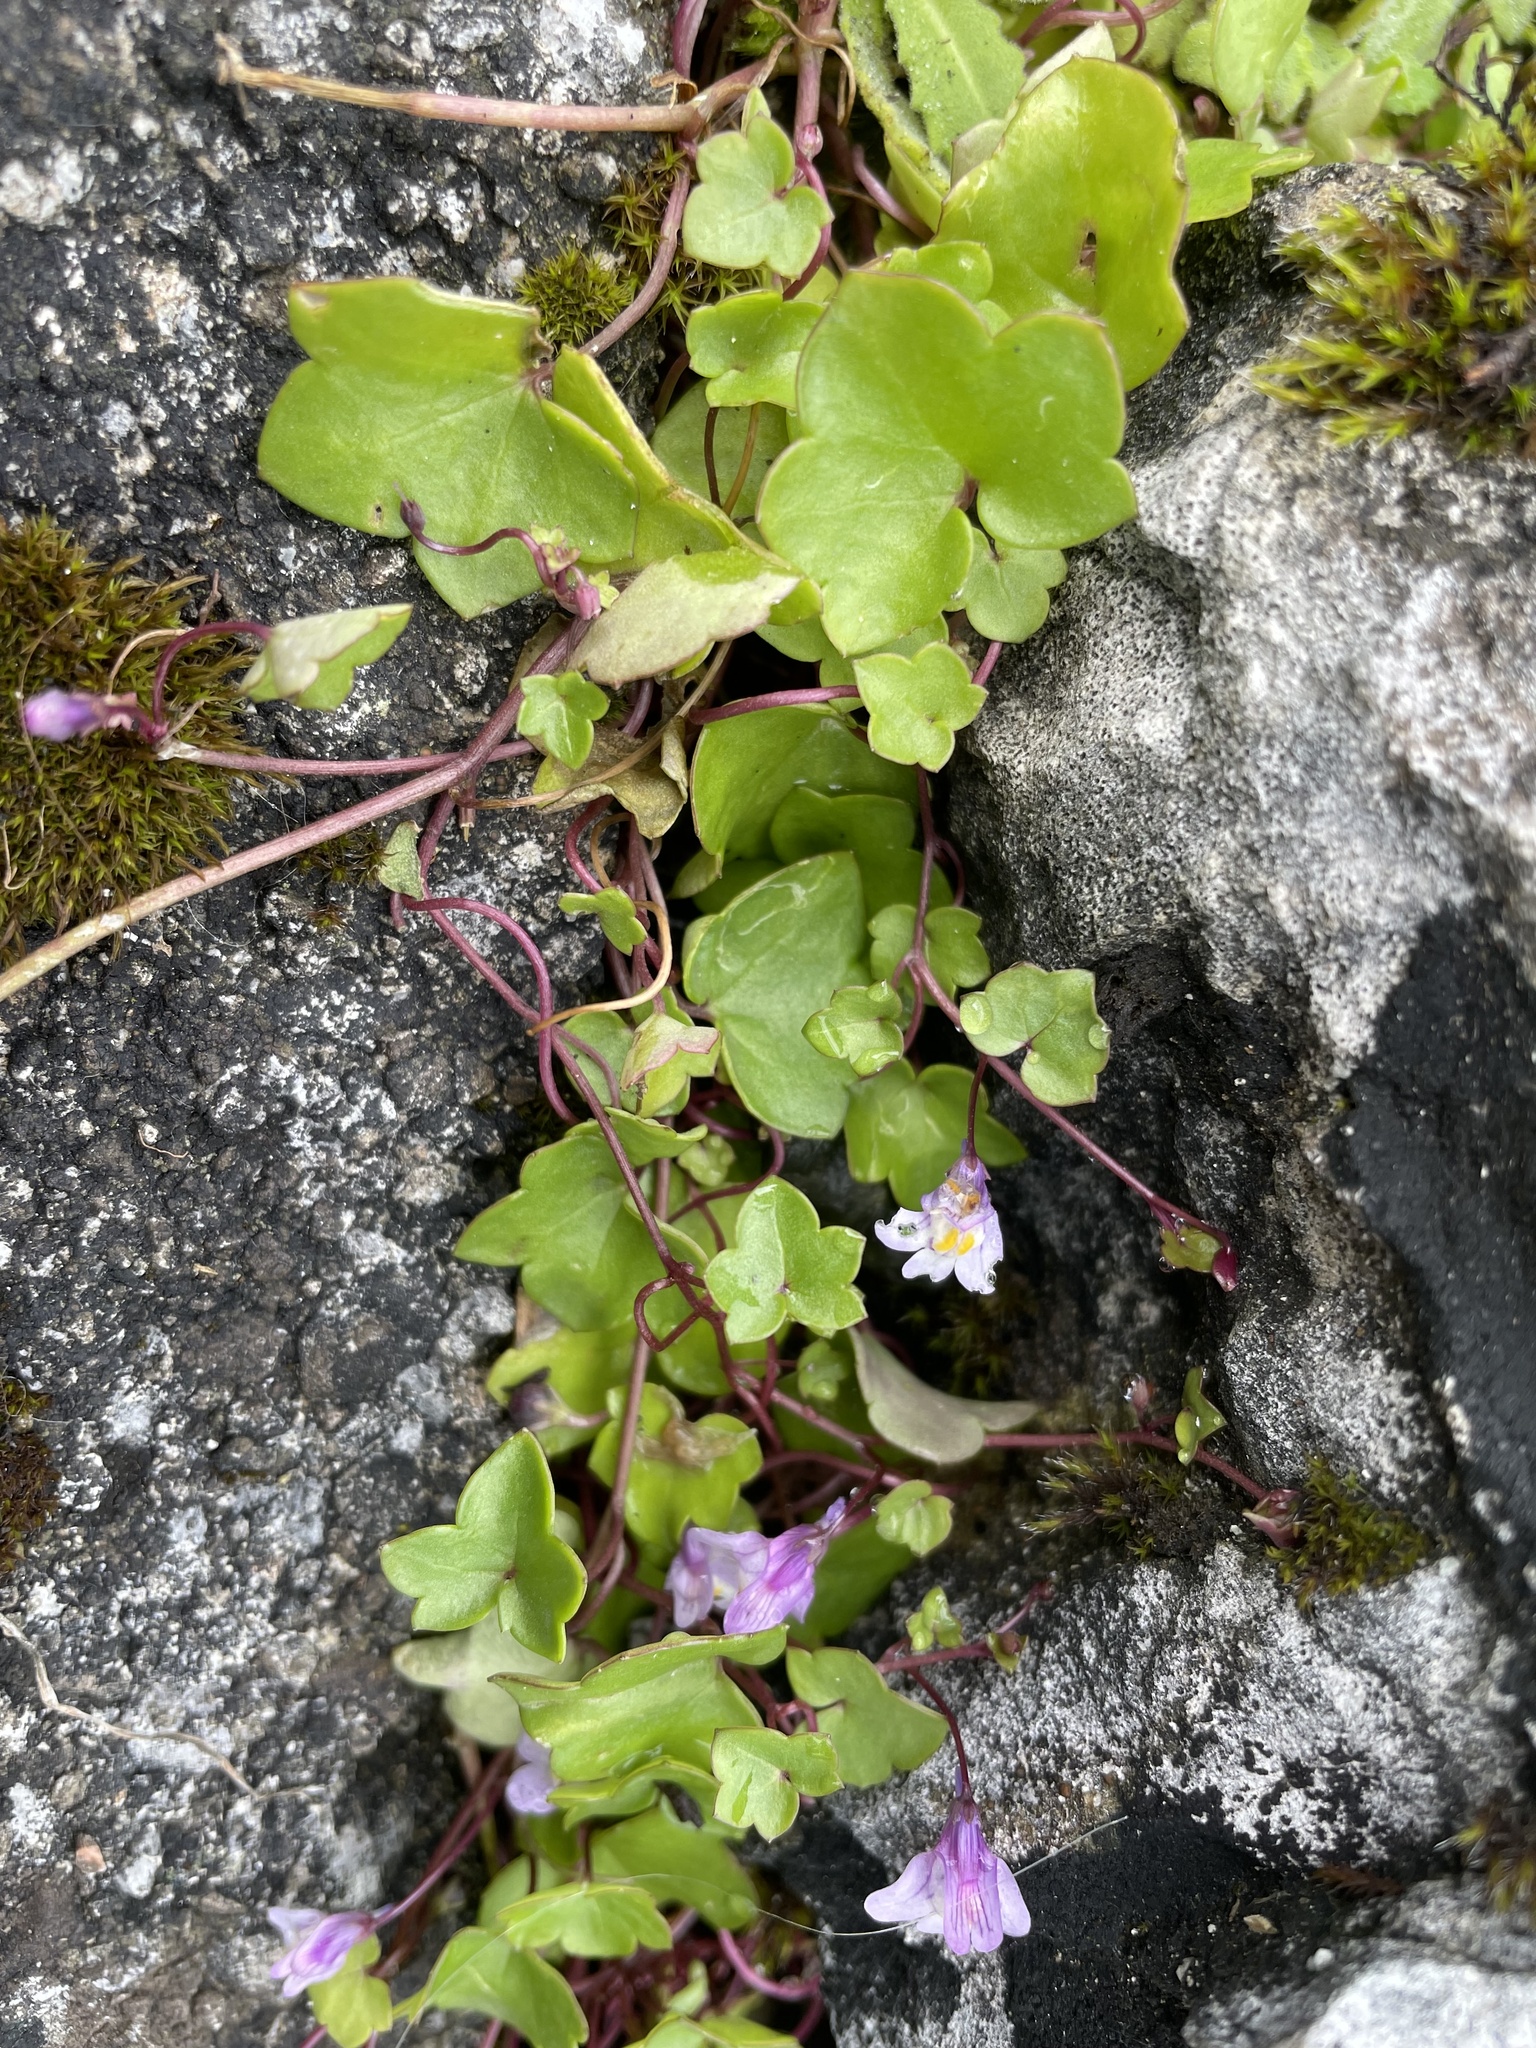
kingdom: Plantae
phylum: Tracheophyta
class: Magnoliopsida
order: Lamiales
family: Plantaginaceae
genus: Cymbalaria
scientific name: Cymbalaria muralis
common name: Ivy-leaved toadflax
